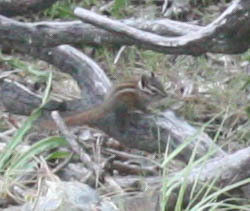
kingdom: Animalia
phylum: Chordata
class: Mammalia
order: Rodentia
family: Sciuridae
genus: Tamias
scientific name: Tamias sonomae
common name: Sonoma chipmunk
